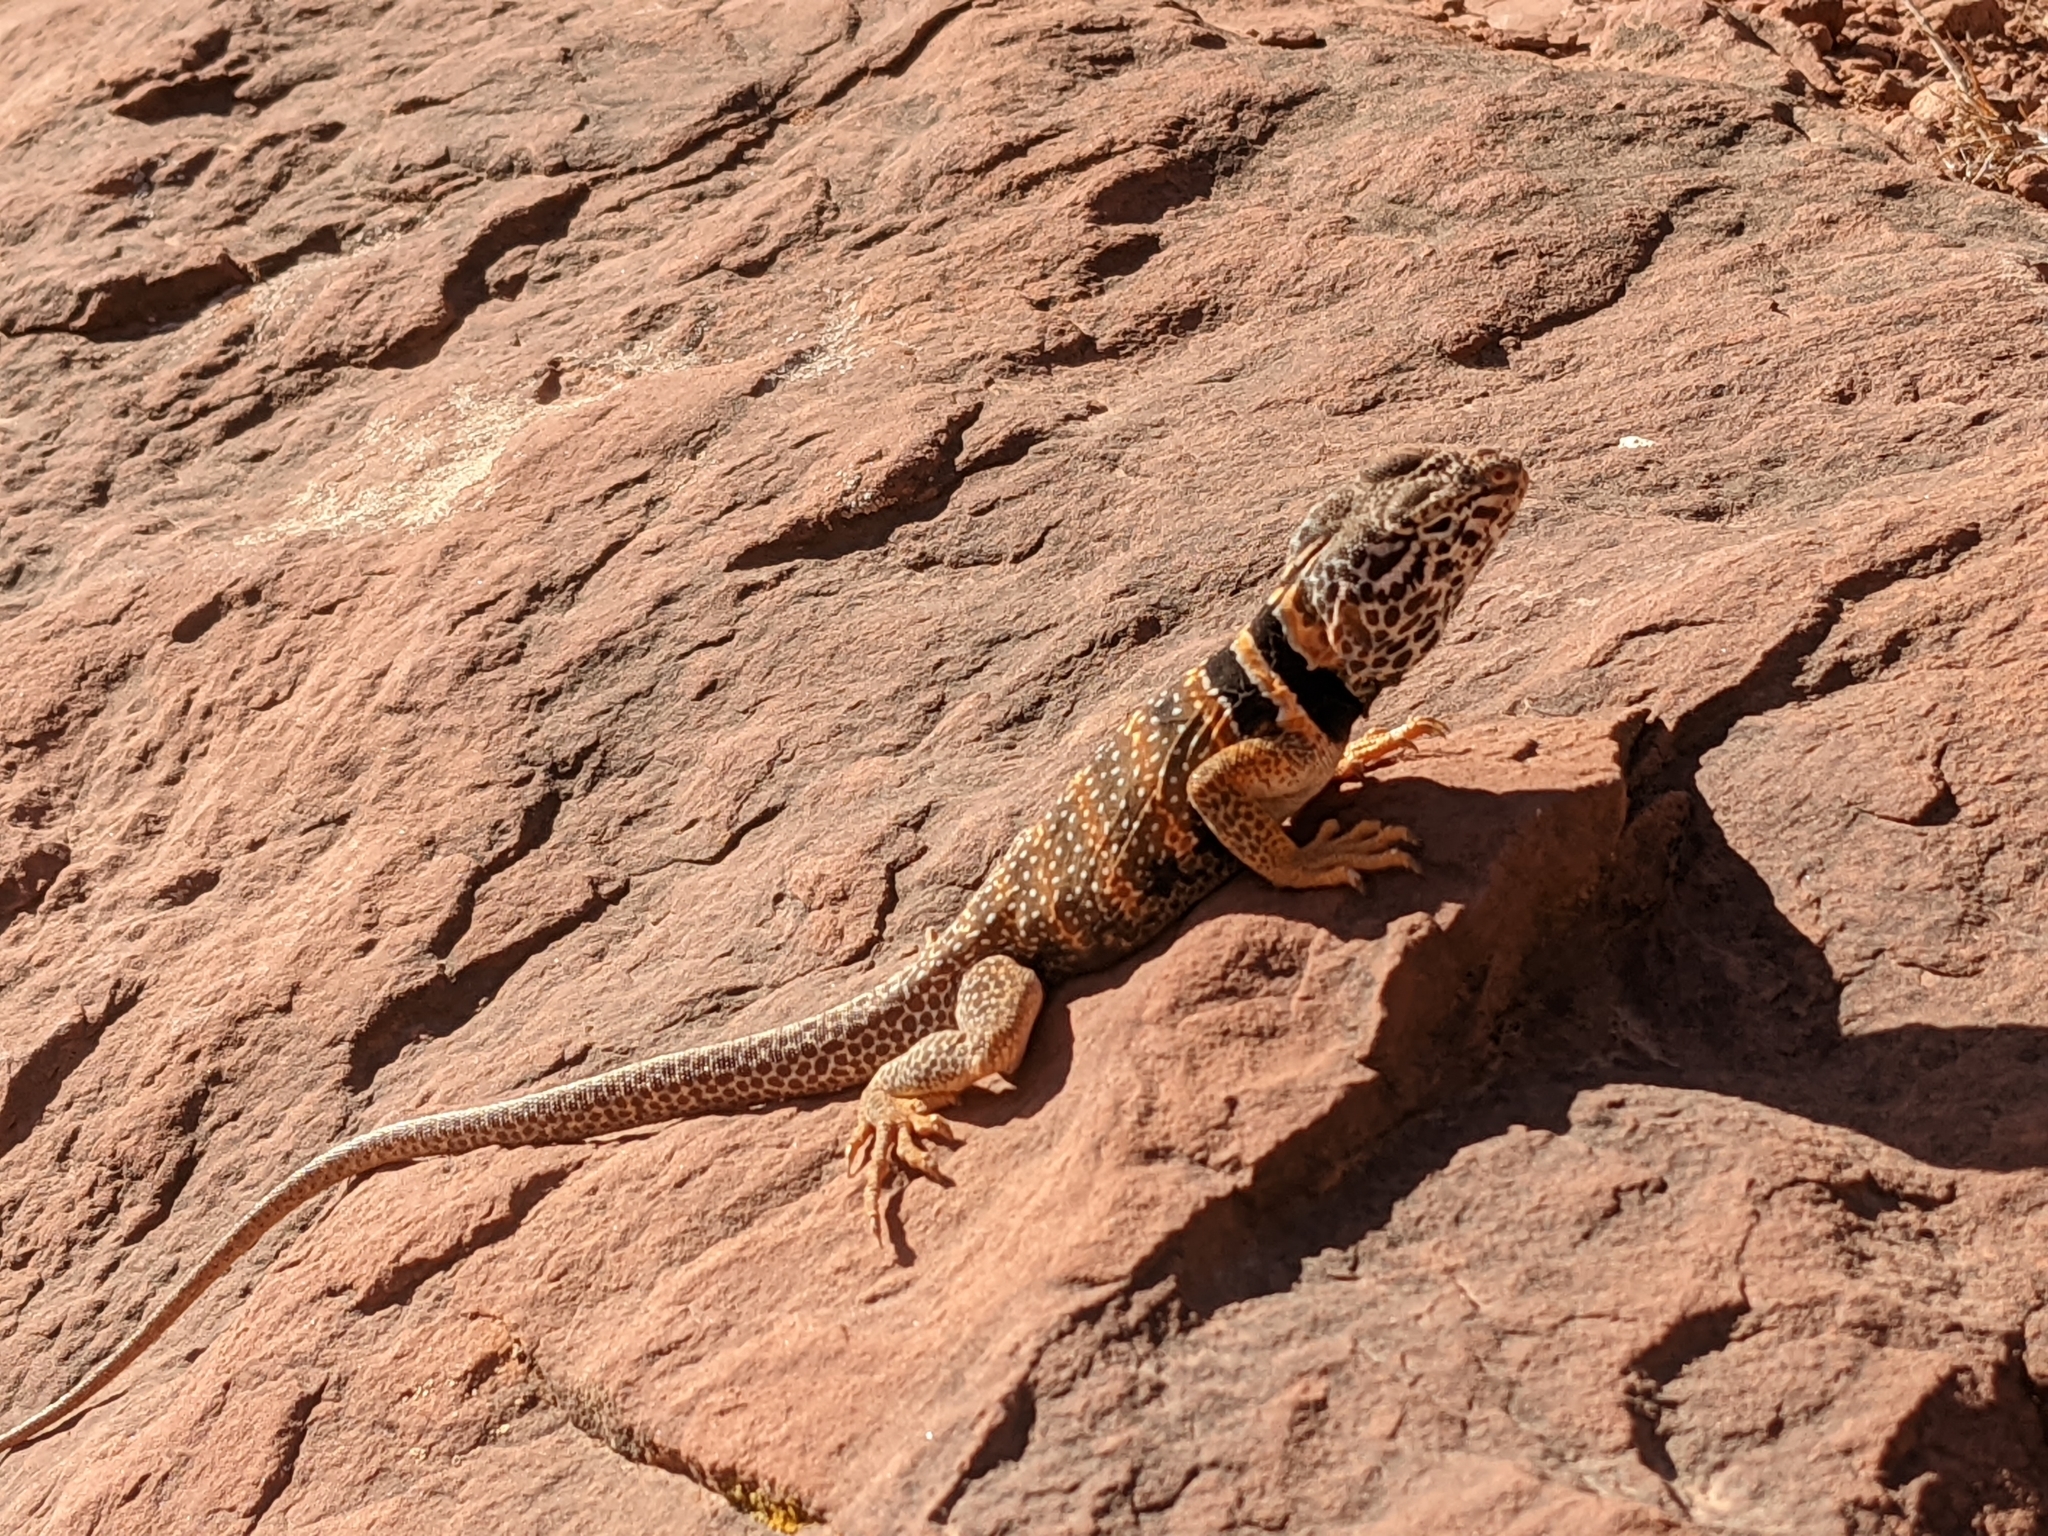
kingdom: Animalia
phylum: Chordata
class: Squamata
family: Crotaphytidae
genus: Crotaphytus
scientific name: Crotaphytus bicinctores
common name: Mojave black-collared lizard
